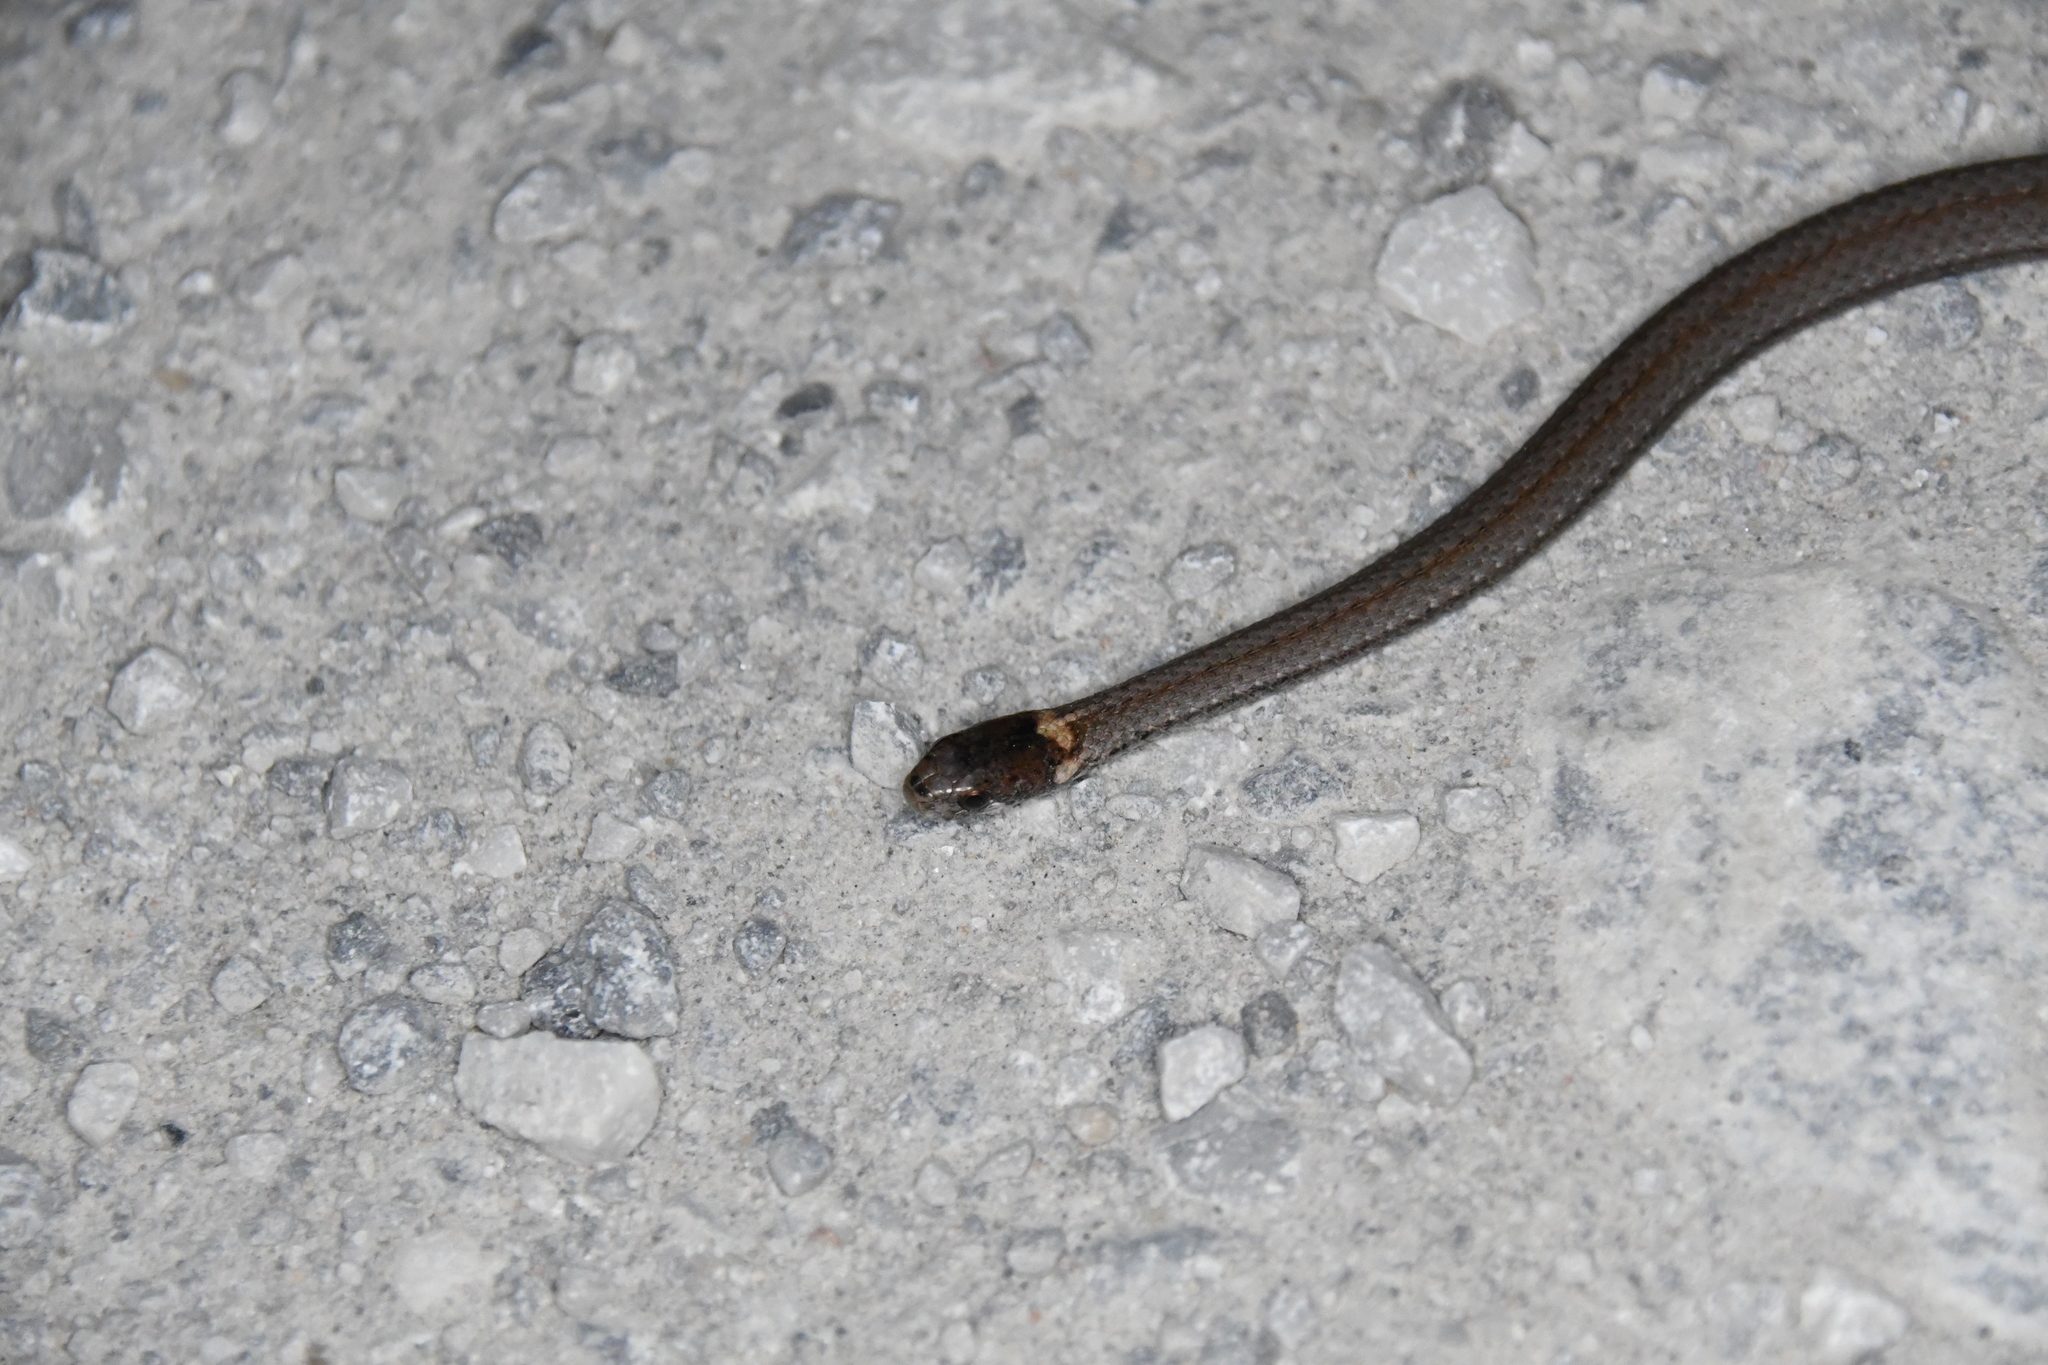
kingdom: Animalia
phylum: Chordata
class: Squamata
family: Colubridae
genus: Storeria
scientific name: Storeria occipitomaculata
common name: Redbelly snake
